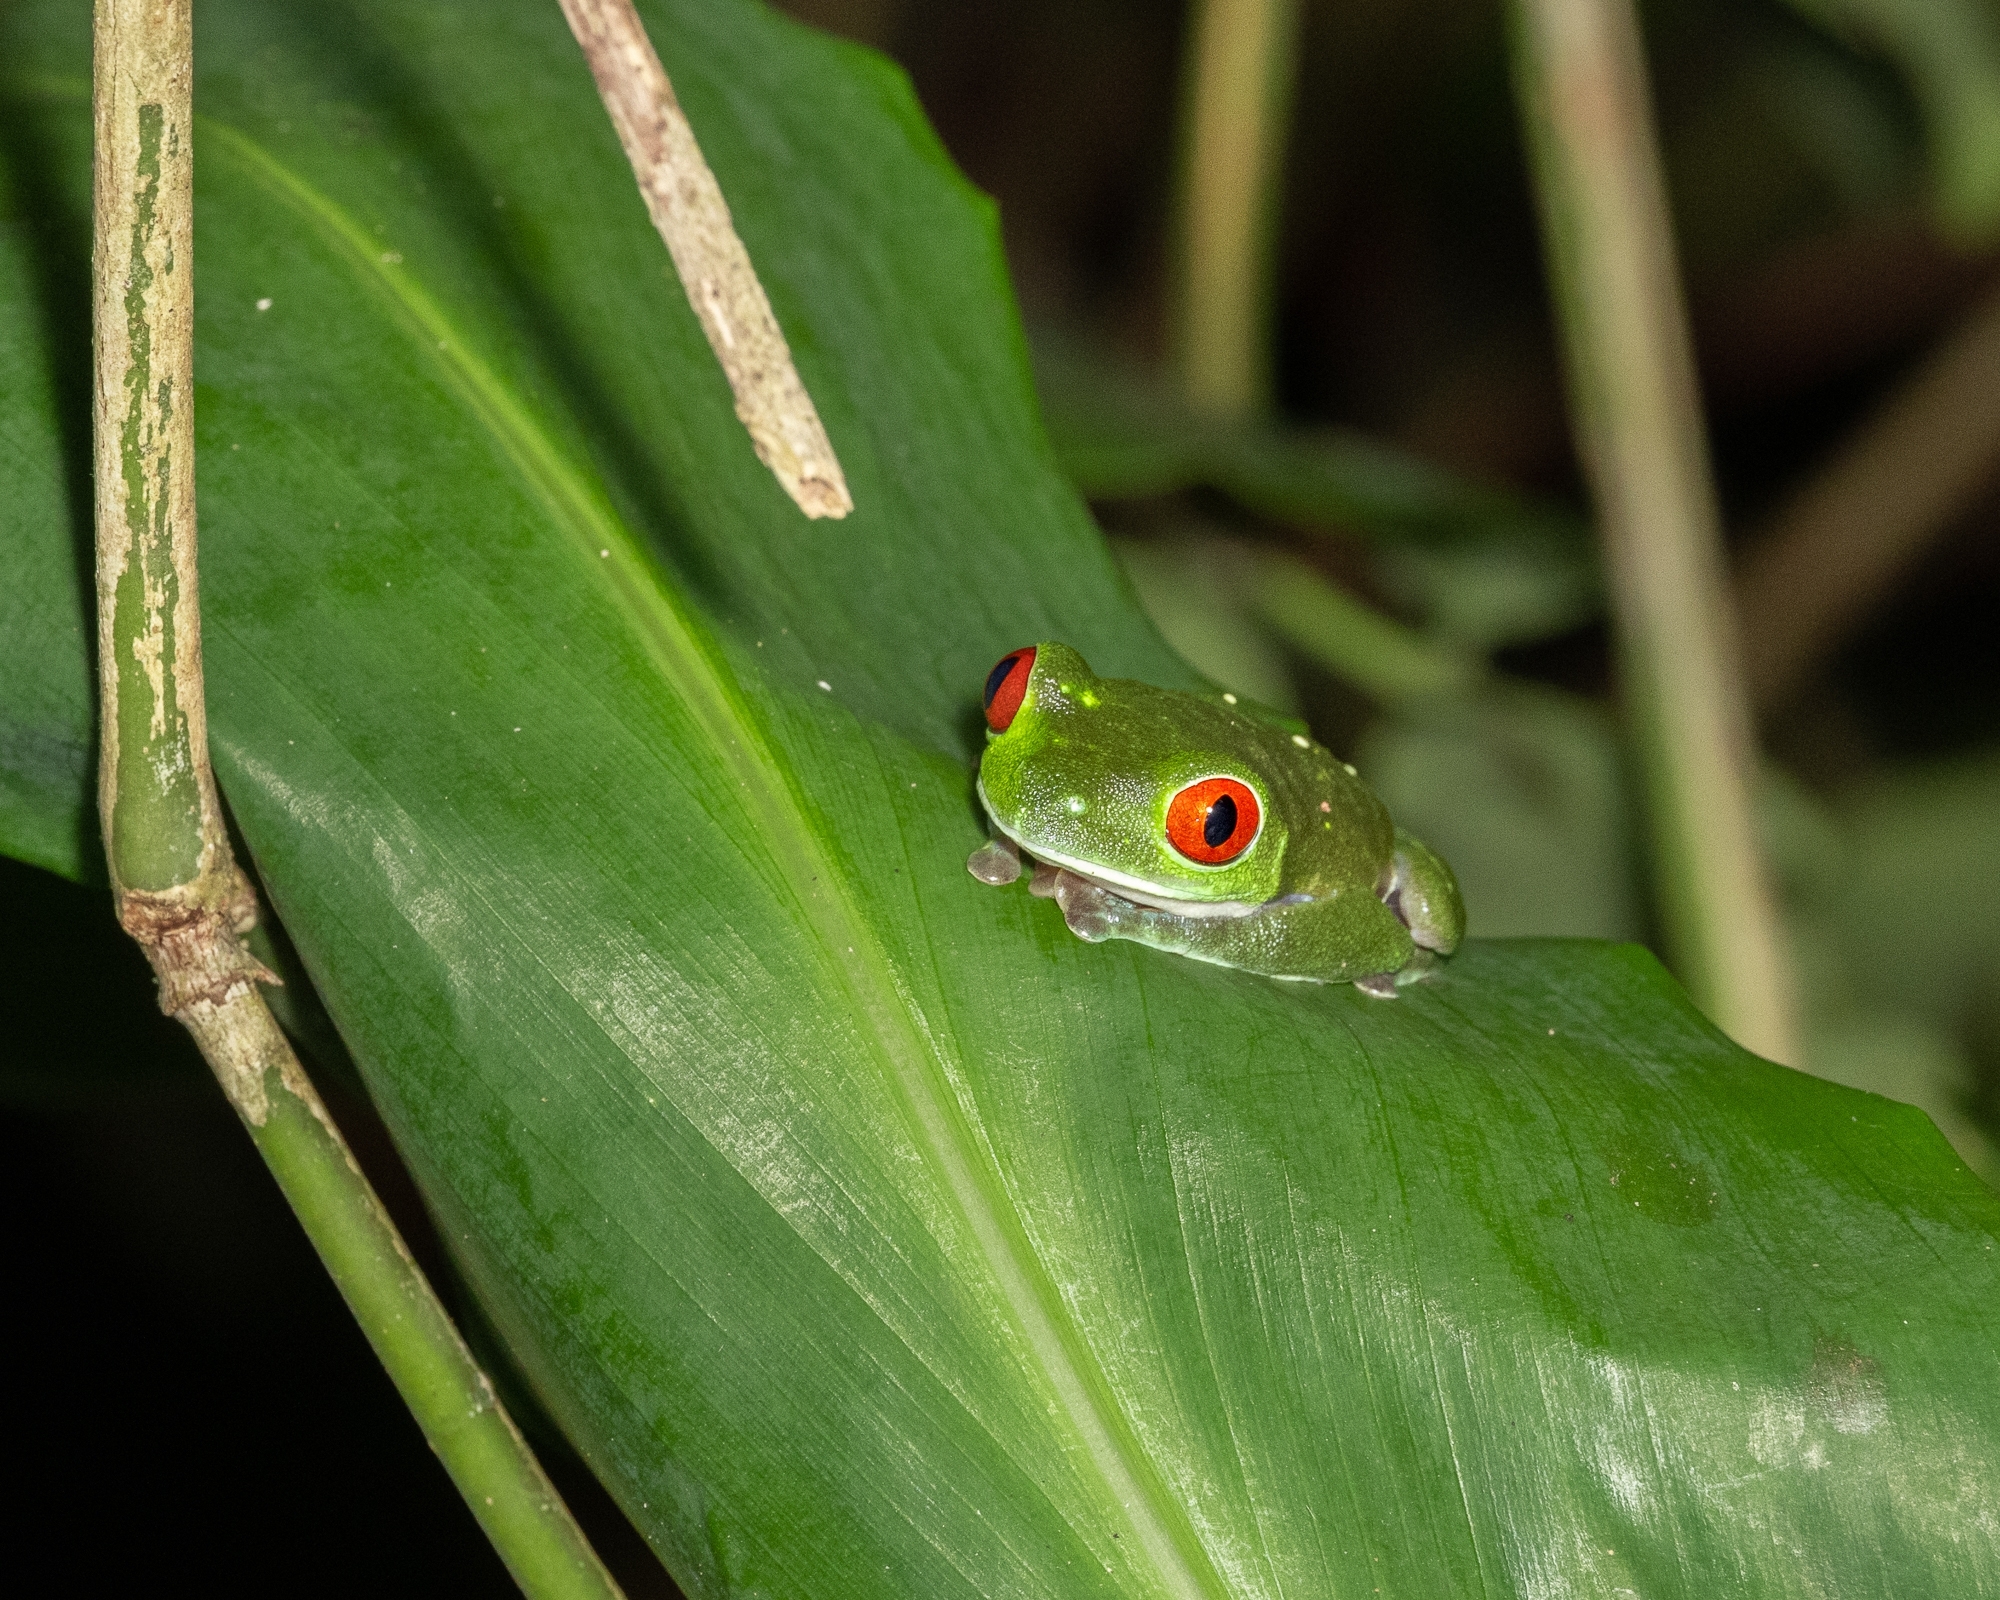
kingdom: Animalia
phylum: Chordata
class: Amphibia
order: Anura
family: Phyllomedusidae
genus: Agalychnis
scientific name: Agalychnis callidryas
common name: Red-eyed treefrog
